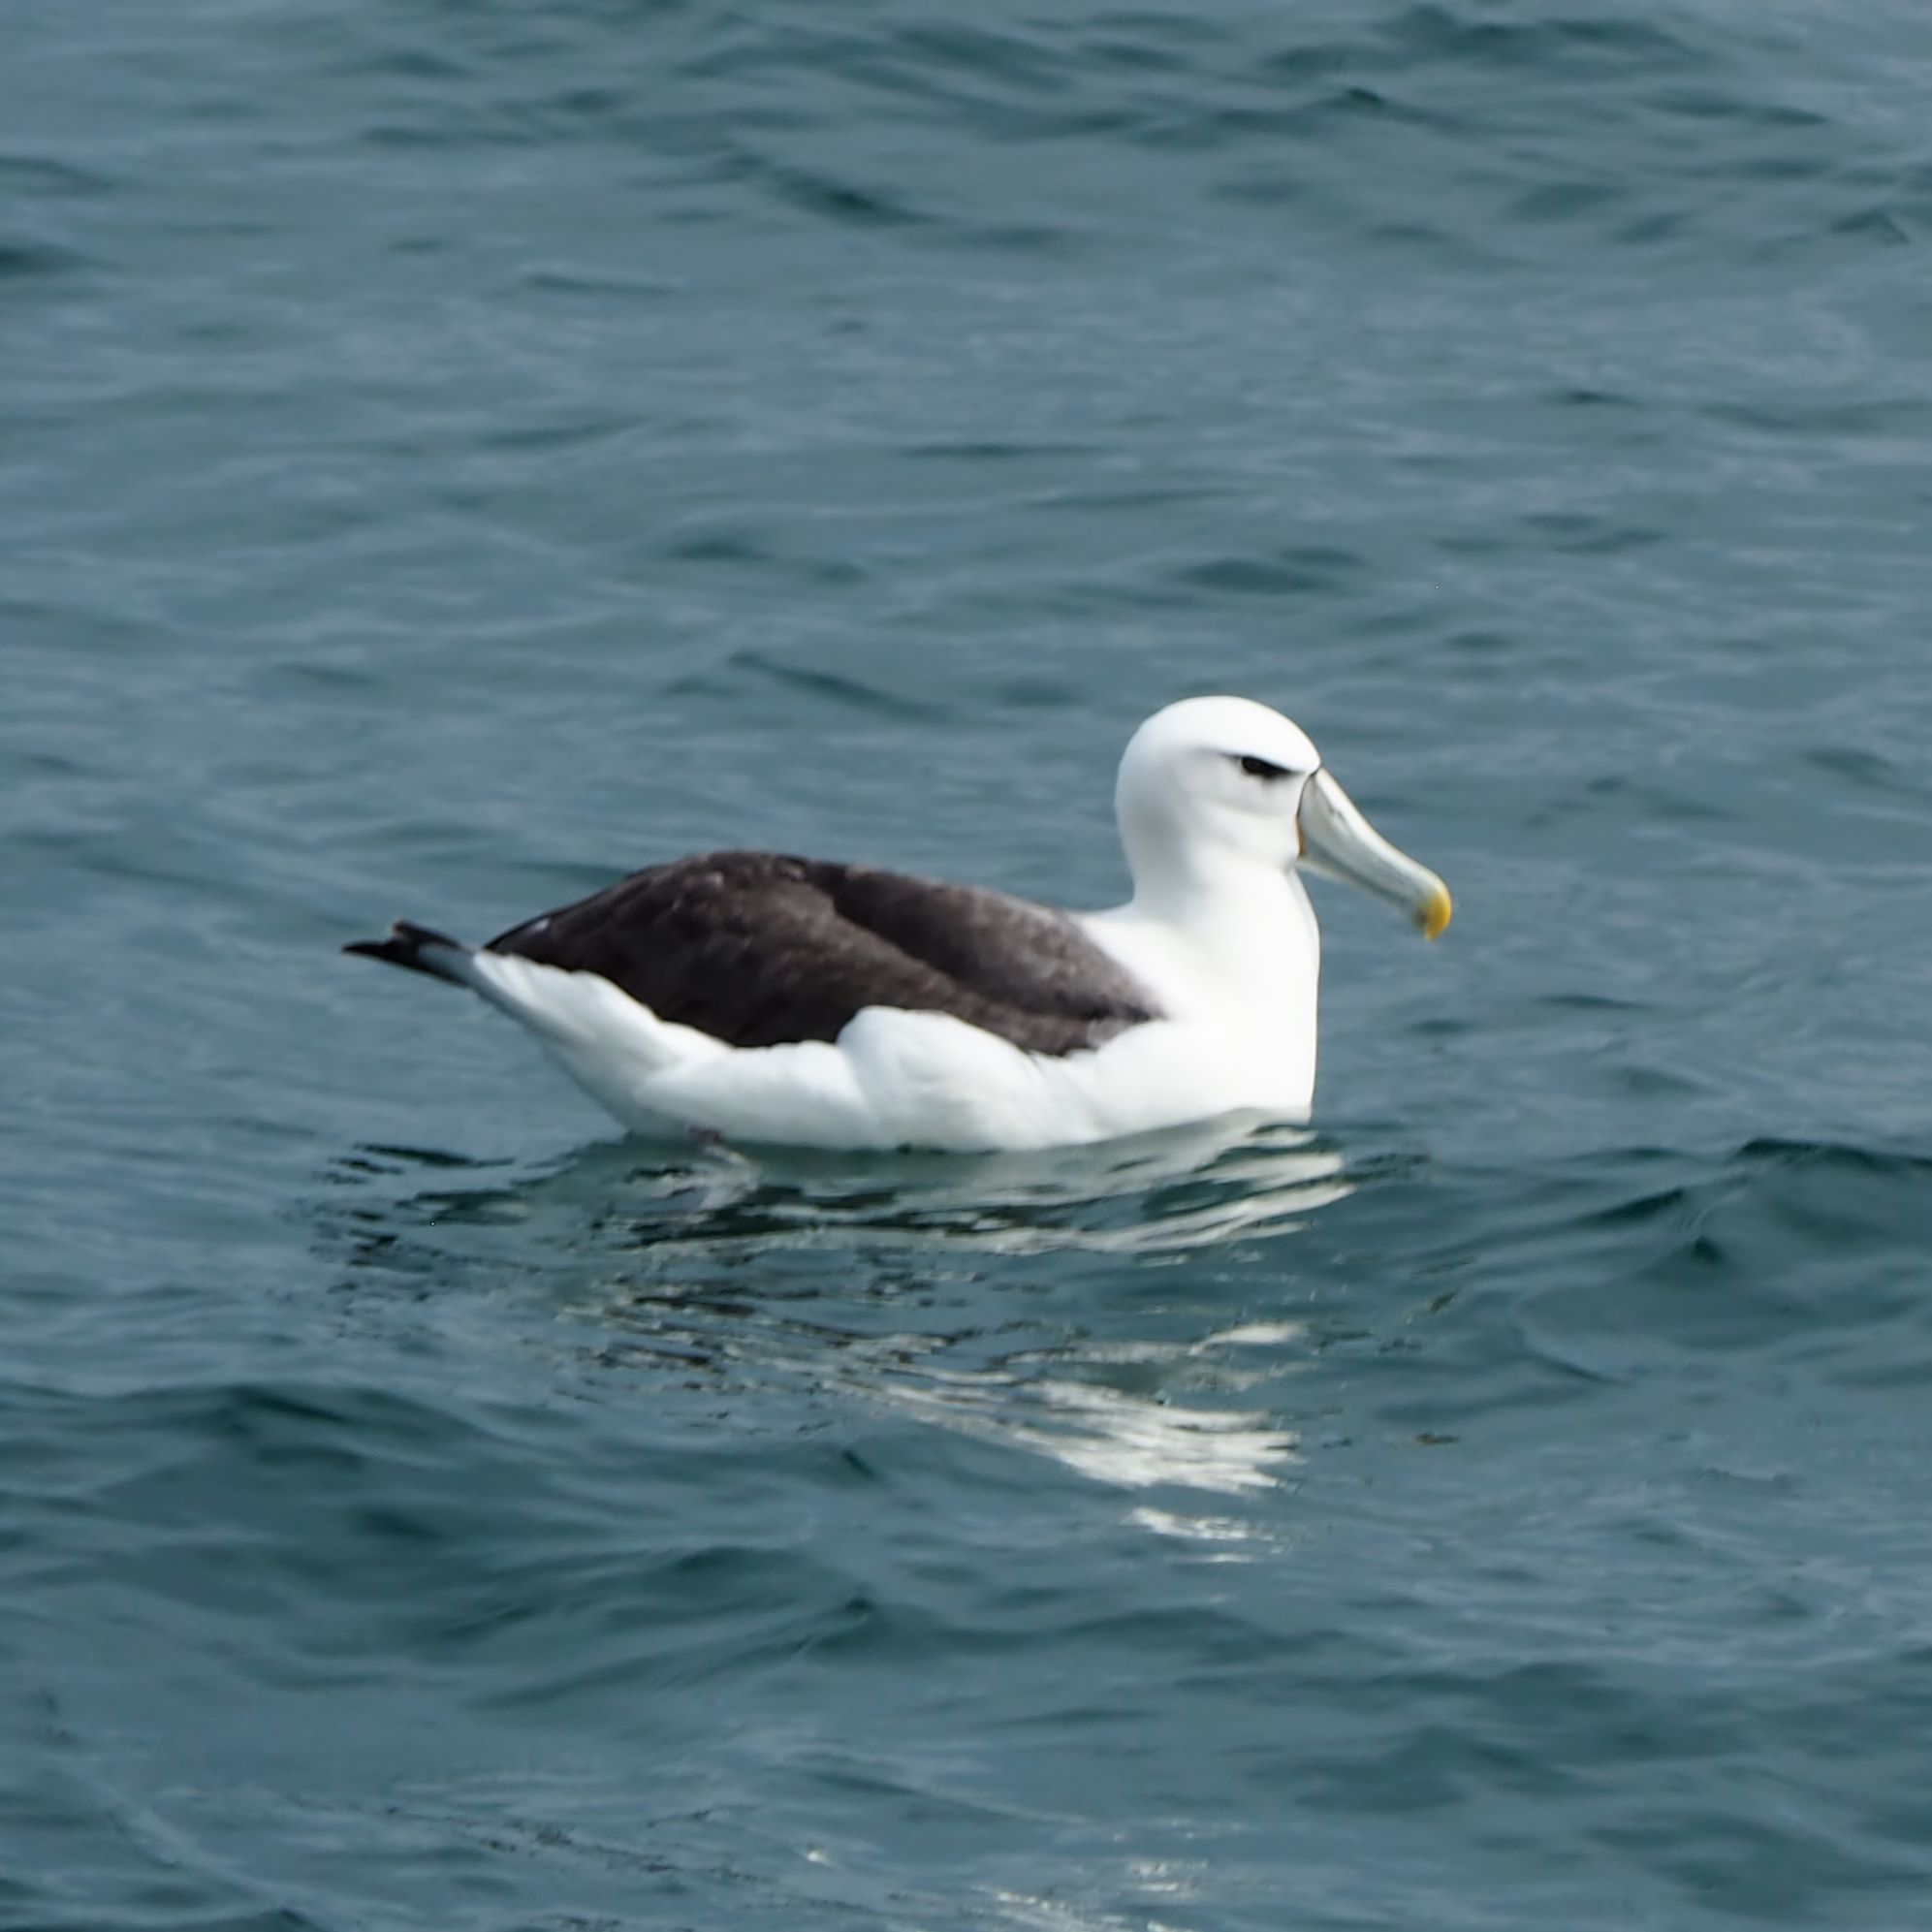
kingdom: Animalia
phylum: Chordata
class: Aves
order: Procellariiformes
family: Diomedeidae
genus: Thalassarche
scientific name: Thalassarche cauta
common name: Shy albatross
